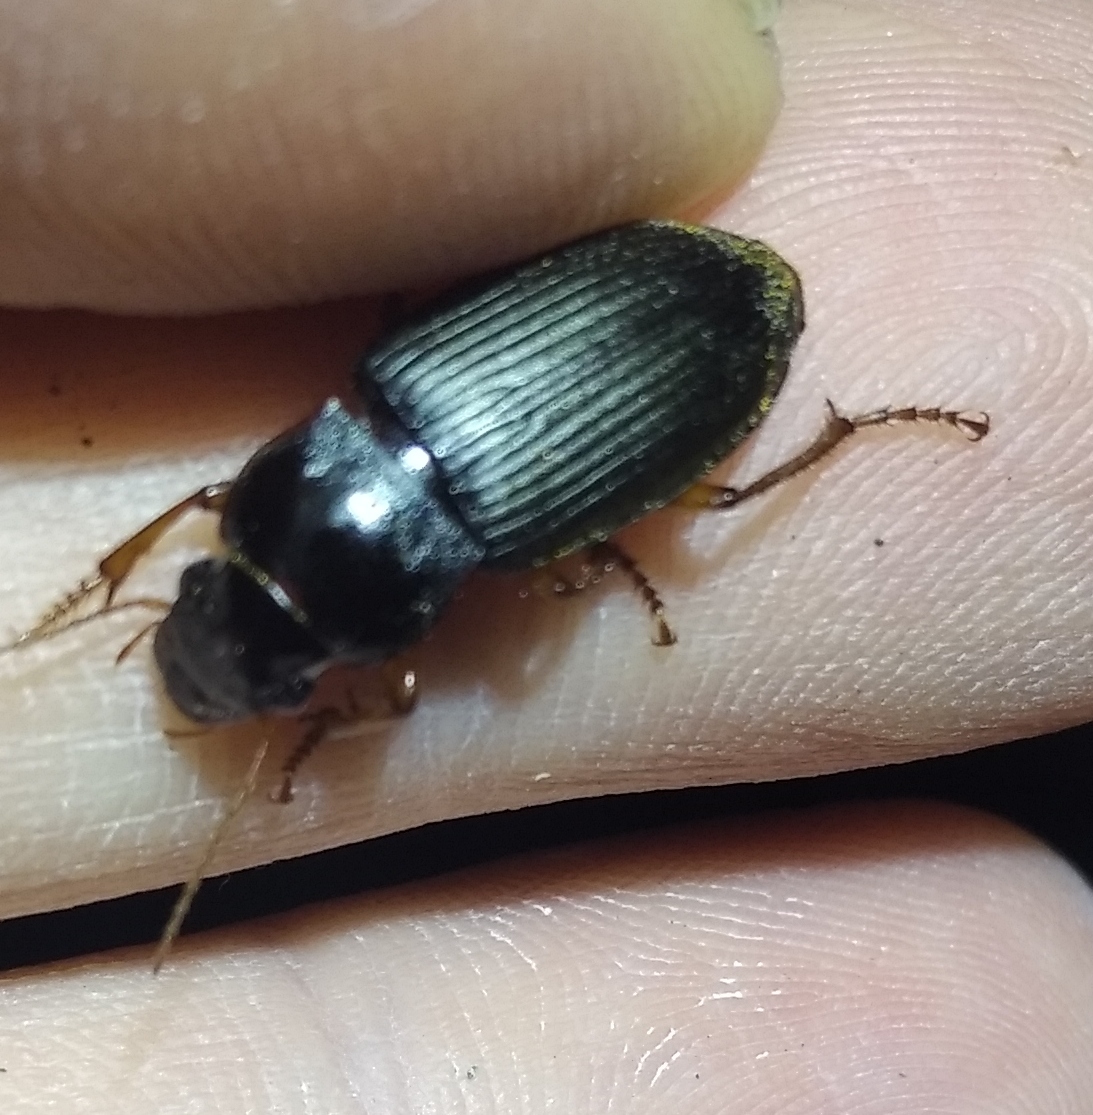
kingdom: Animalia
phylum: Arthropoda
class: Insecta
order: Coleoptera
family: Carabidae
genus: Harpalus
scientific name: Harpalus rufipes
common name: Strawberry harp ground beetle
